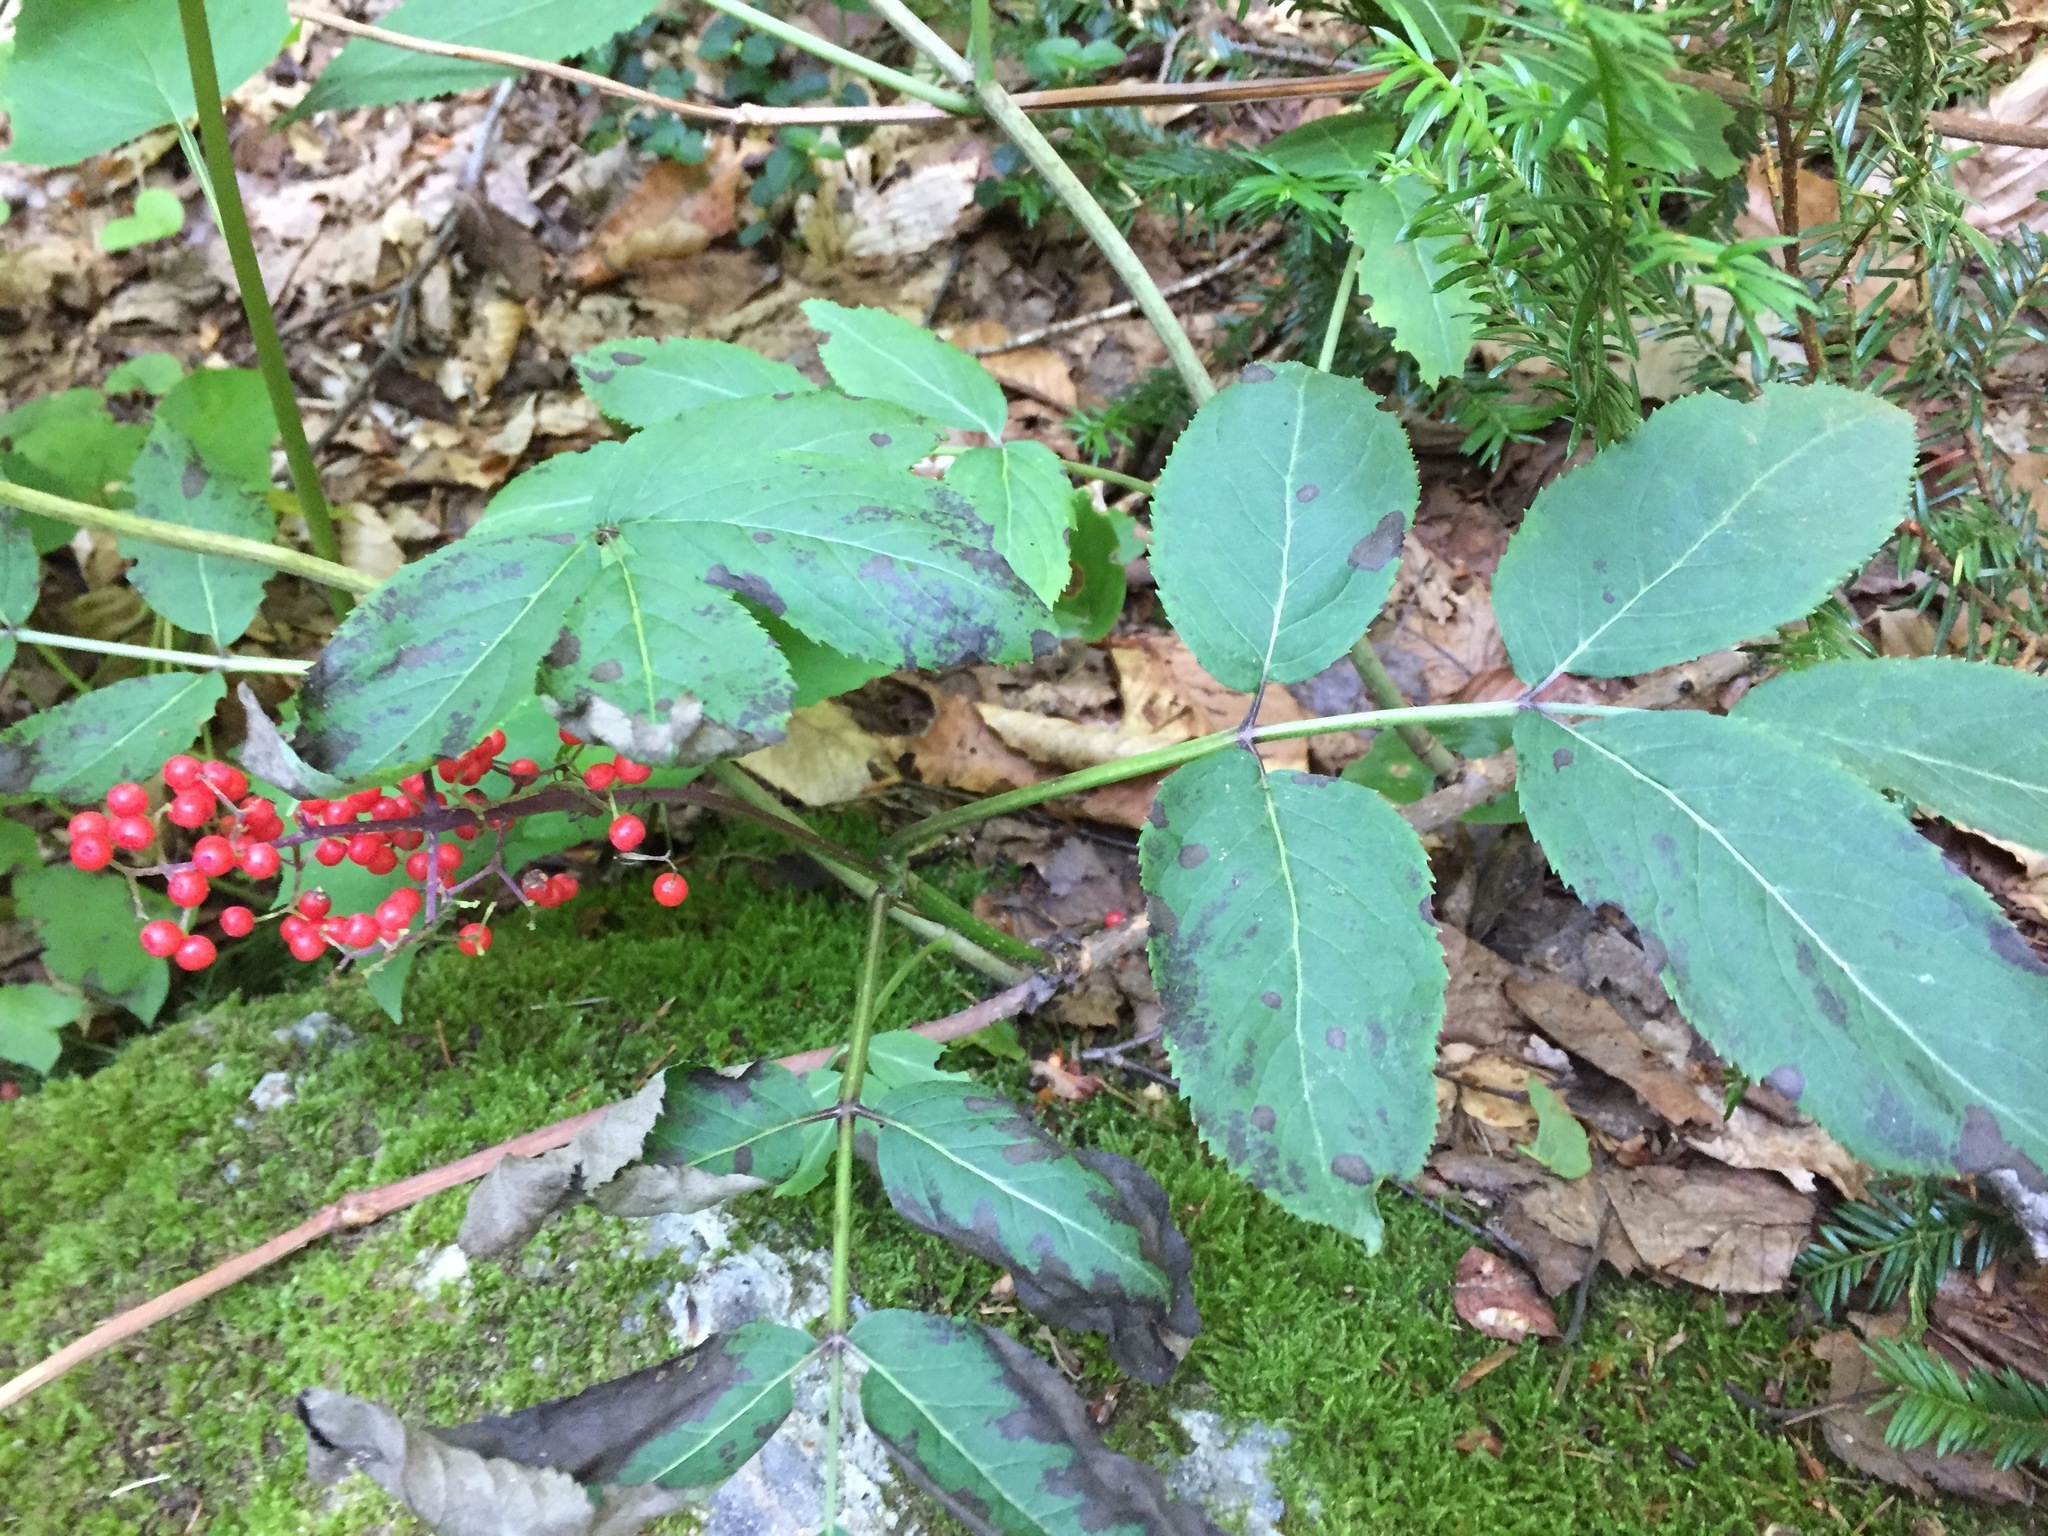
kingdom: Plantae
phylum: Tracheophyta
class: Magnoliopsida
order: Dipsacales
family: Viburnaceae
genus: Sambucus
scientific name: Sambucus racemosa
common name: Red-berried elder
